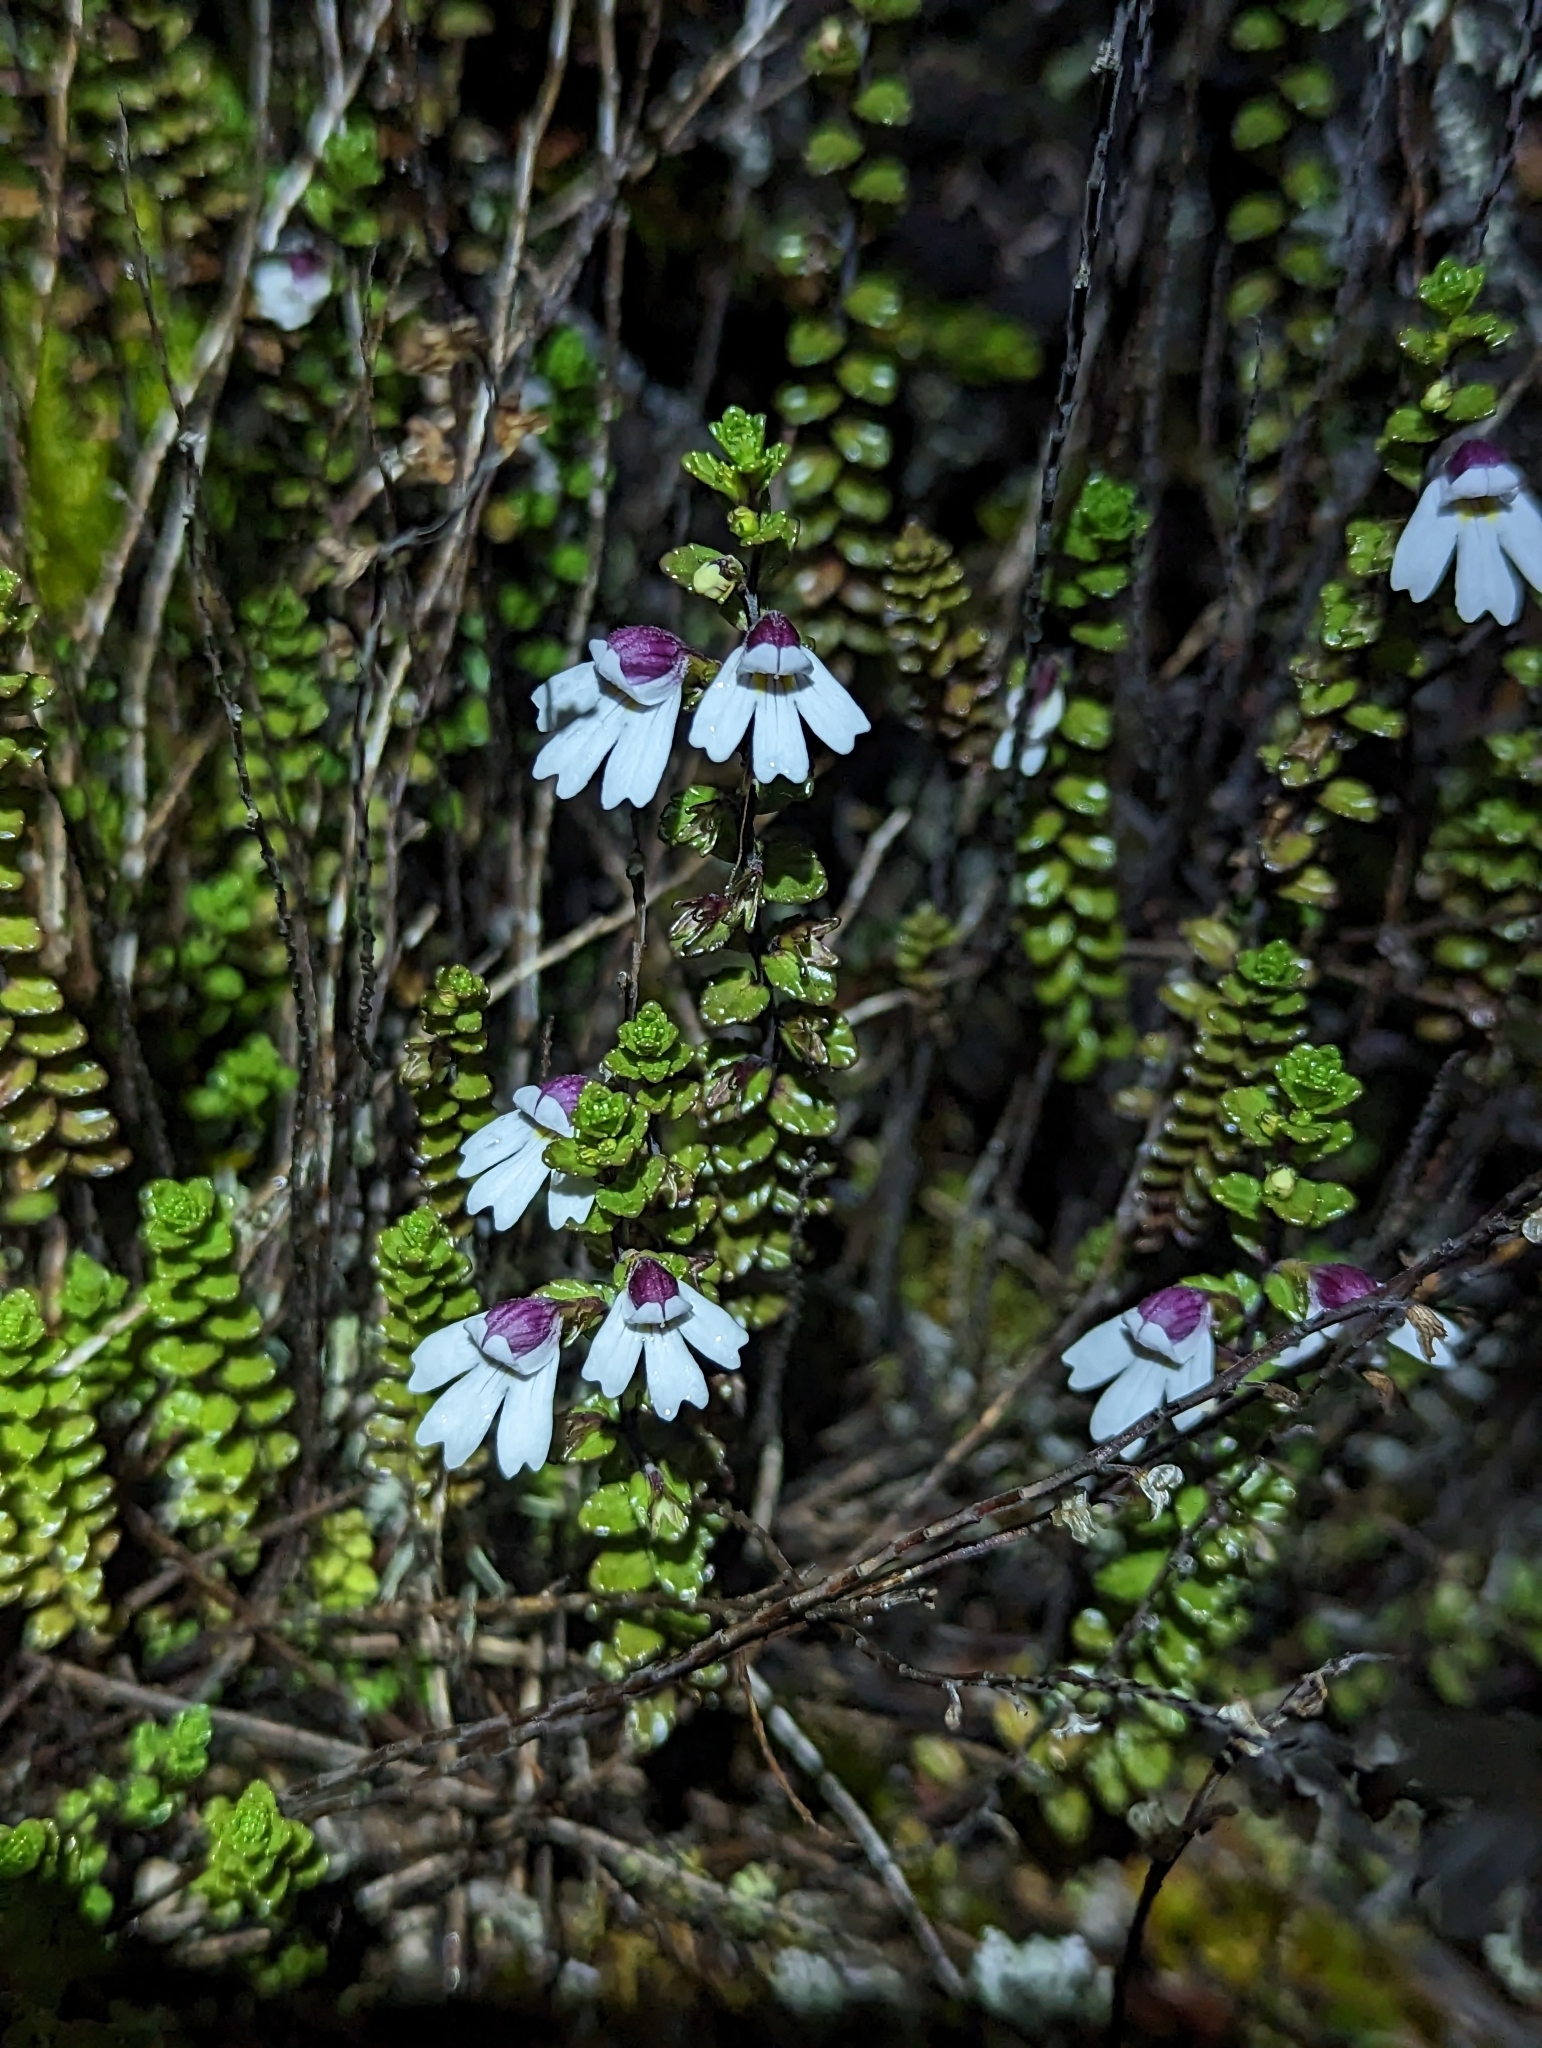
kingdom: Plantae
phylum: Tracheophyta
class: Magnoliopsida
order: Lamiales
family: Orobanchaceae
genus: Euphrasia
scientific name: Euphrasia borneensis
